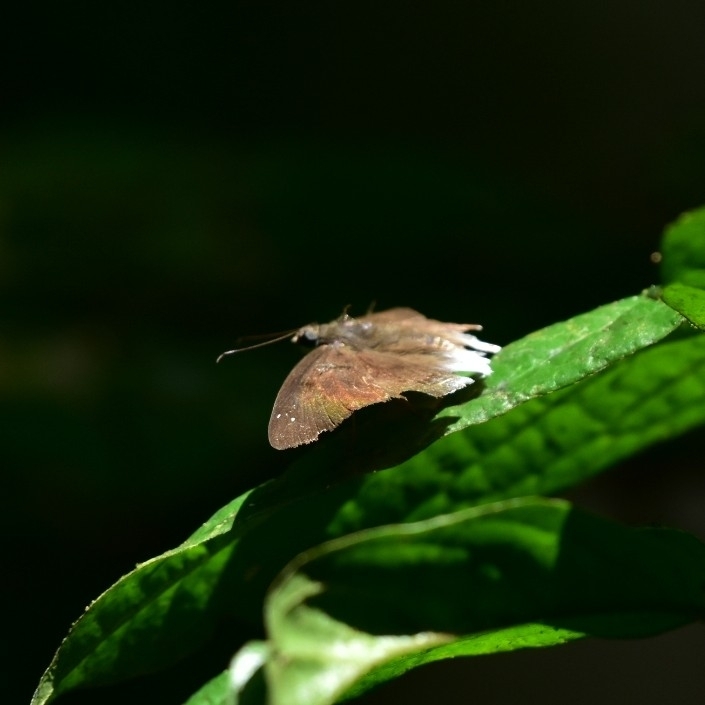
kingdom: Animalia
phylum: Arthropoda
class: Insecta
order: Lepidoptera
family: Hesperiidae
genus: Tagiades
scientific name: Tagiades gana
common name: Suffused snow flat
